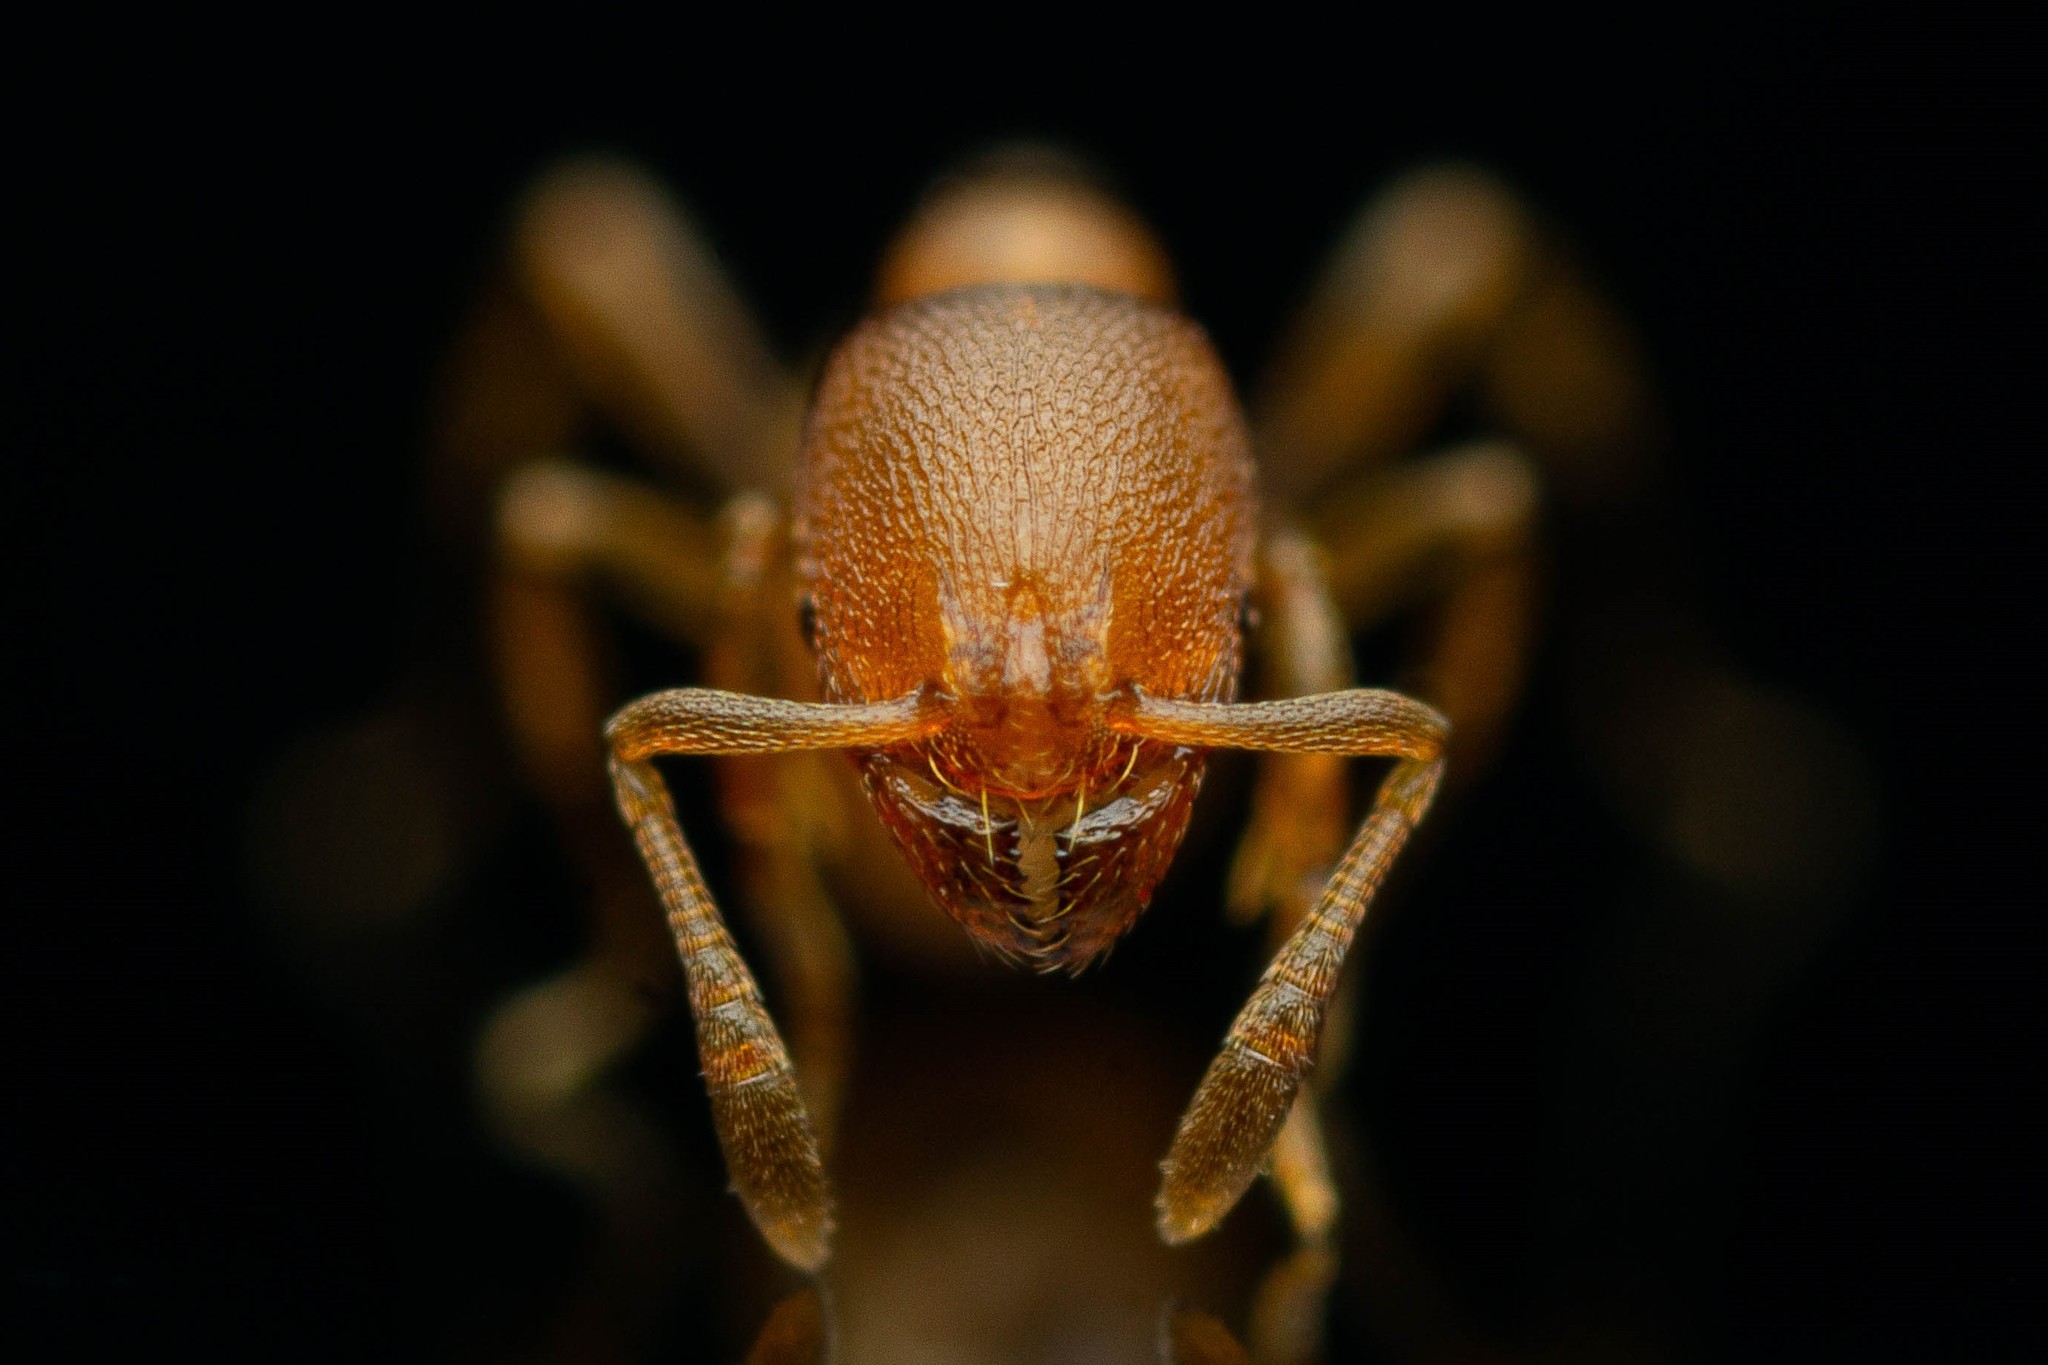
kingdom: Animalia
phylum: Arthropoda
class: Insecta
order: Hymenoptera
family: Formicidae
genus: Rogeria
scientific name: Rogeria foreli
